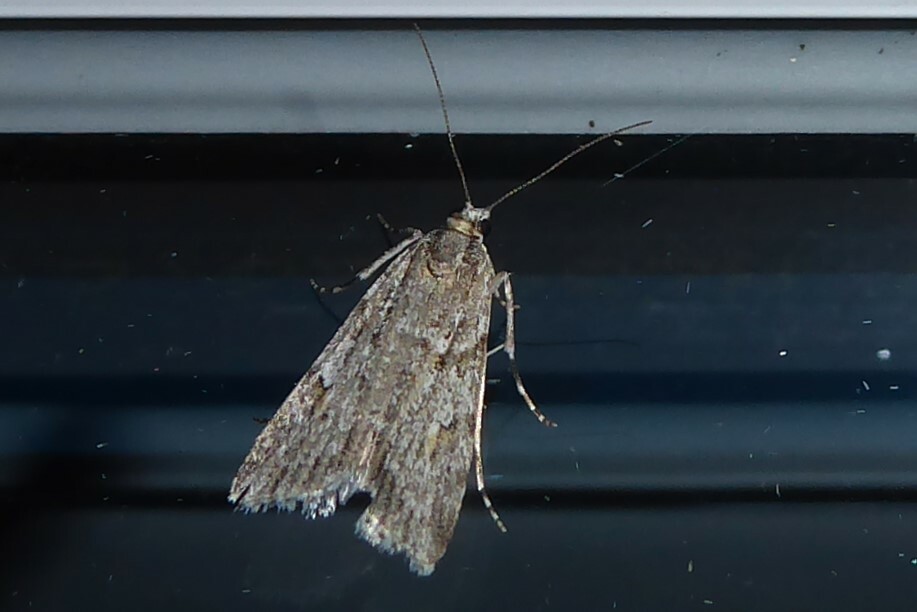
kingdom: Animalia
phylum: Arthropoda
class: Insecta
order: Lepidoptera
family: Crambidae
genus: Scoparia
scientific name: Scoparia chalicodes
